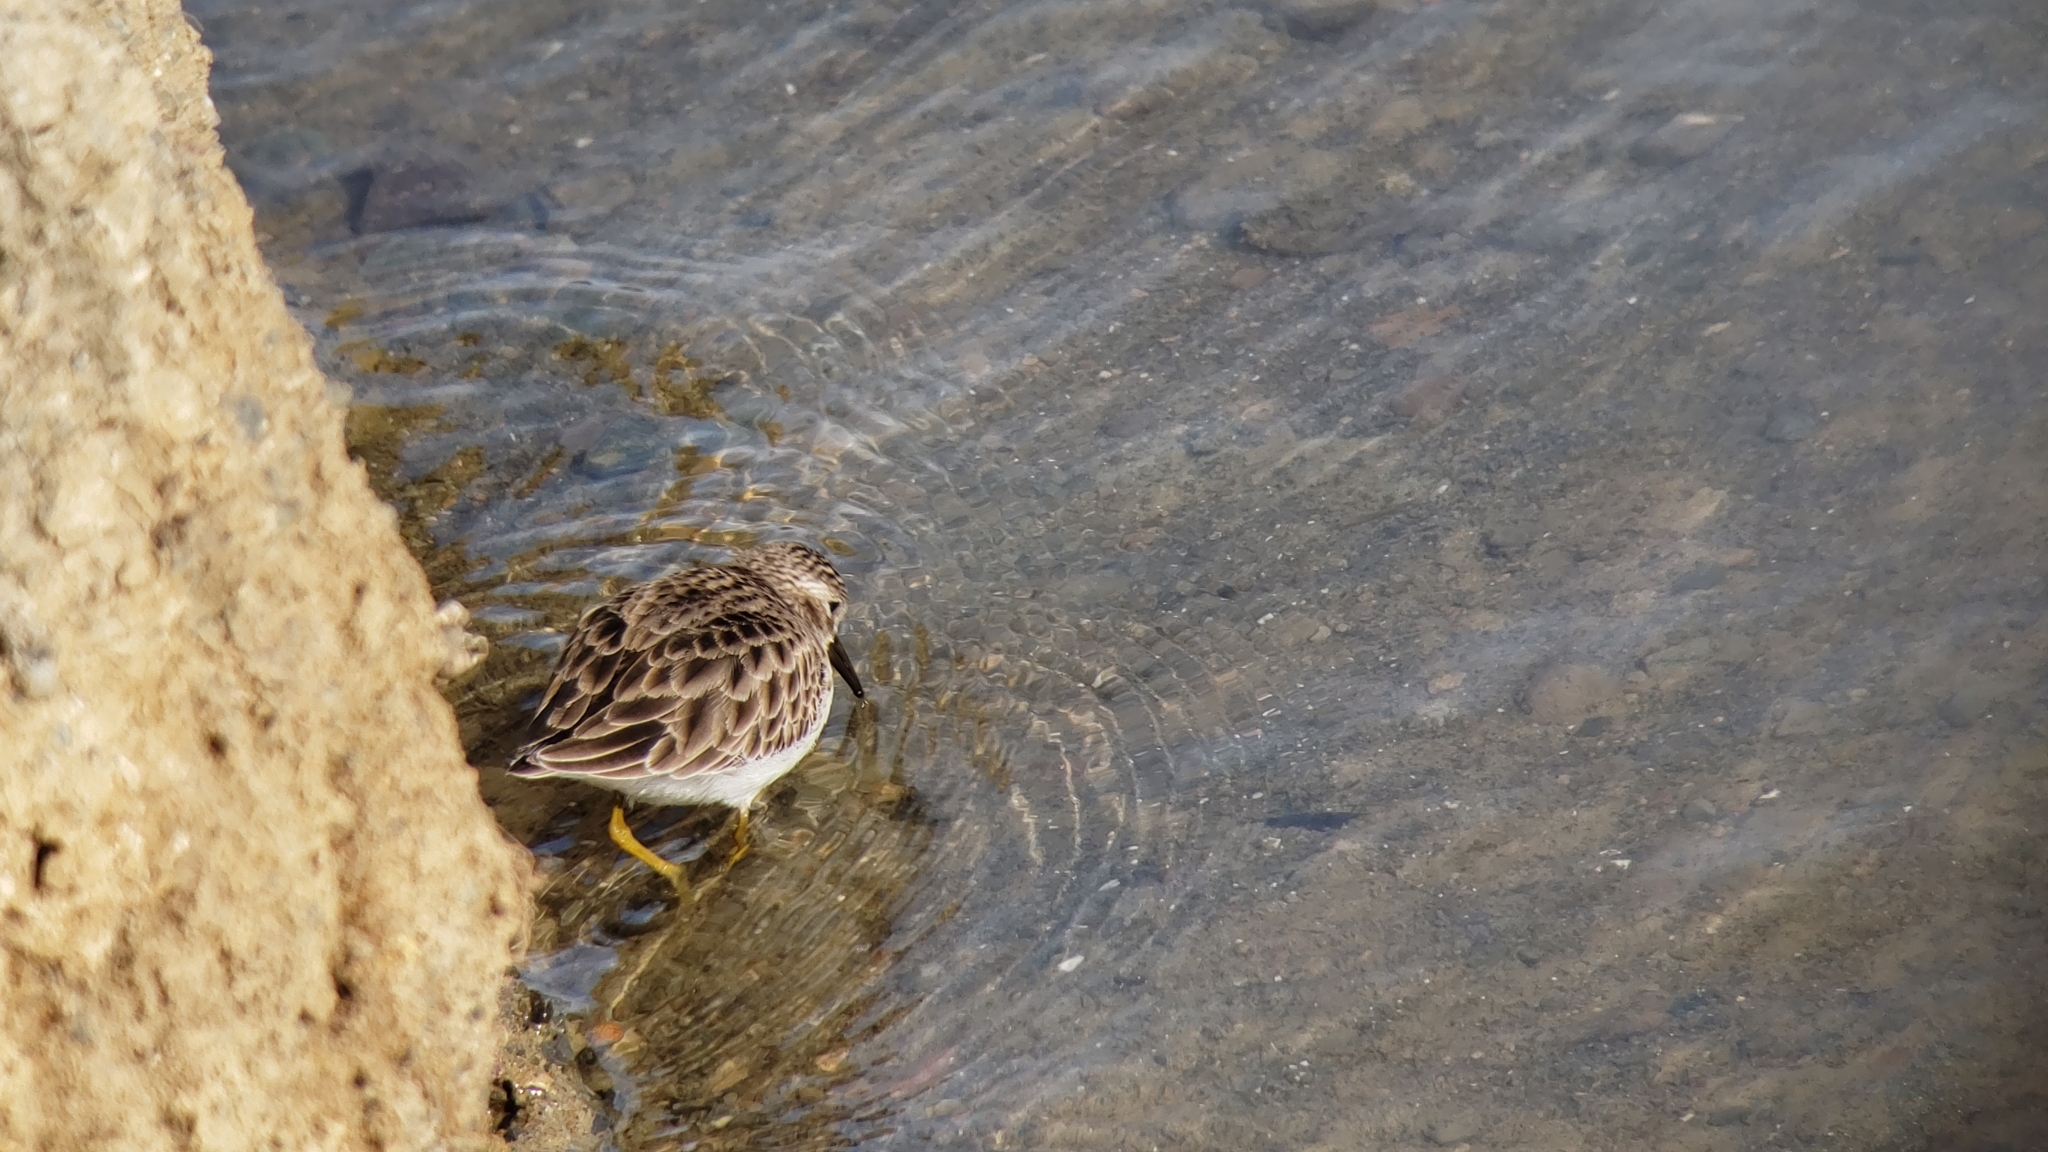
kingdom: Animalia
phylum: Chordata
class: Aves
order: Charadriiformes
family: Scolopacidae
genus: Calidris
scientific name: Calidris minutilla
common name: Least sandpiper
